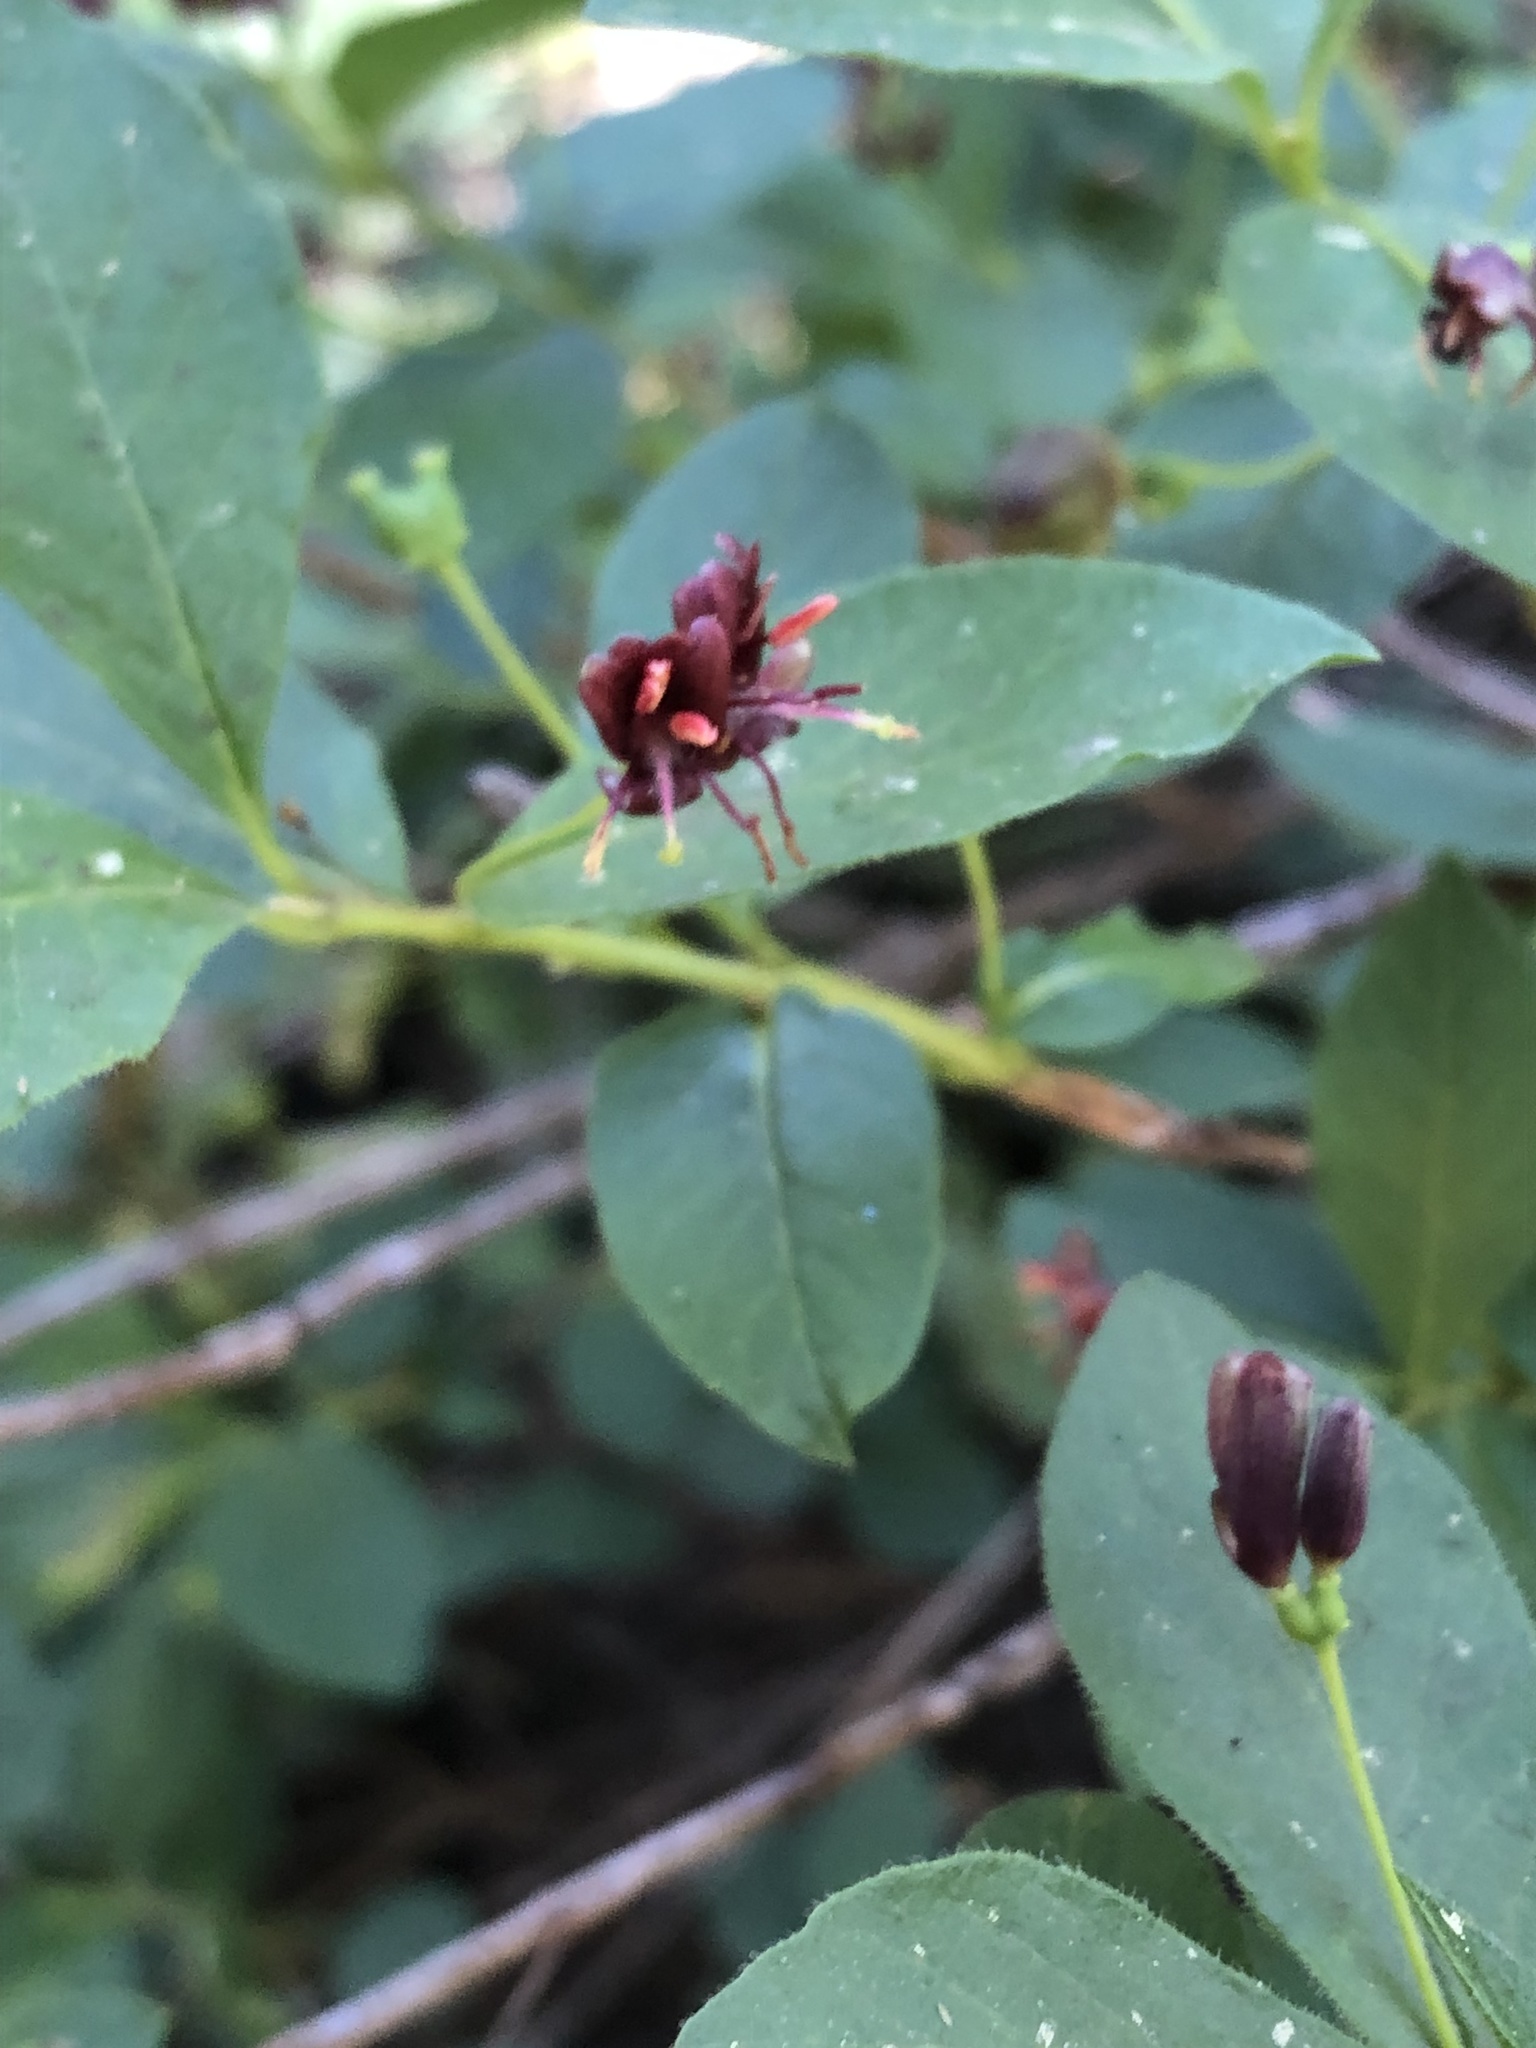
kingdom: Plantae
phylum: Tracheophyta
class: Magnoliopsida
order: Dipsacales
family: Caprifoliaceae
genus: Lonicera
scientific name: Lonicera conjugialis
